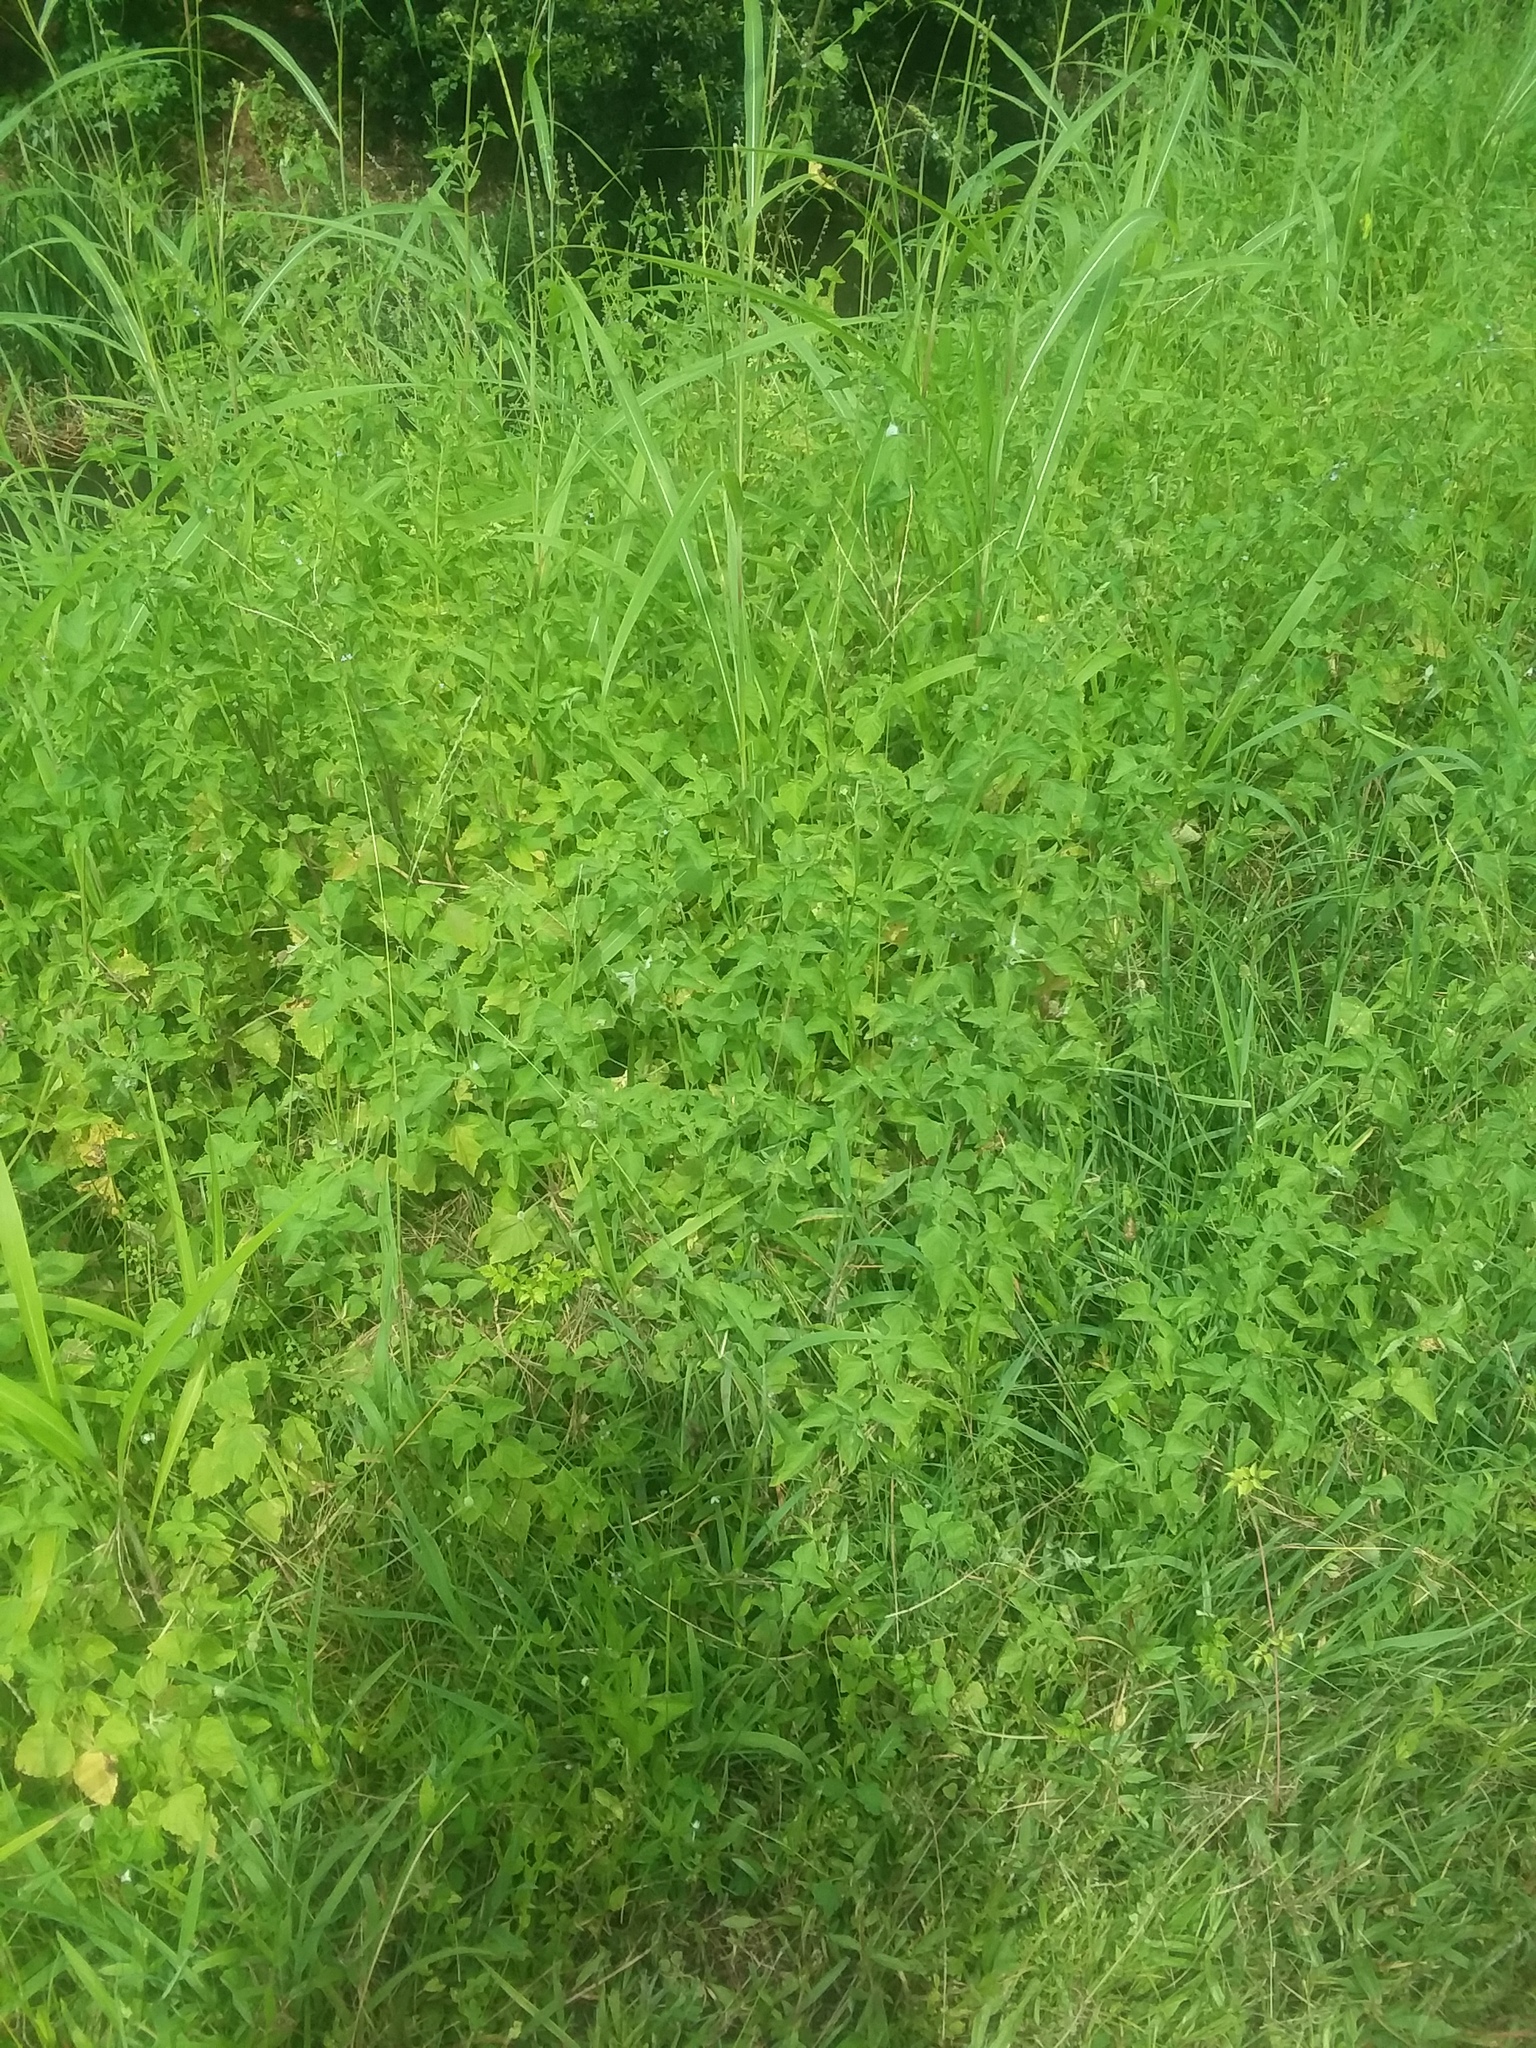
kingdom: Plantae
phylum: Tracheophyta
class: Magnoliopsida
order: Lamiales
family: Lamiaceae
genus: Cantinoa
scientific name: Cantinoa mutabilis
